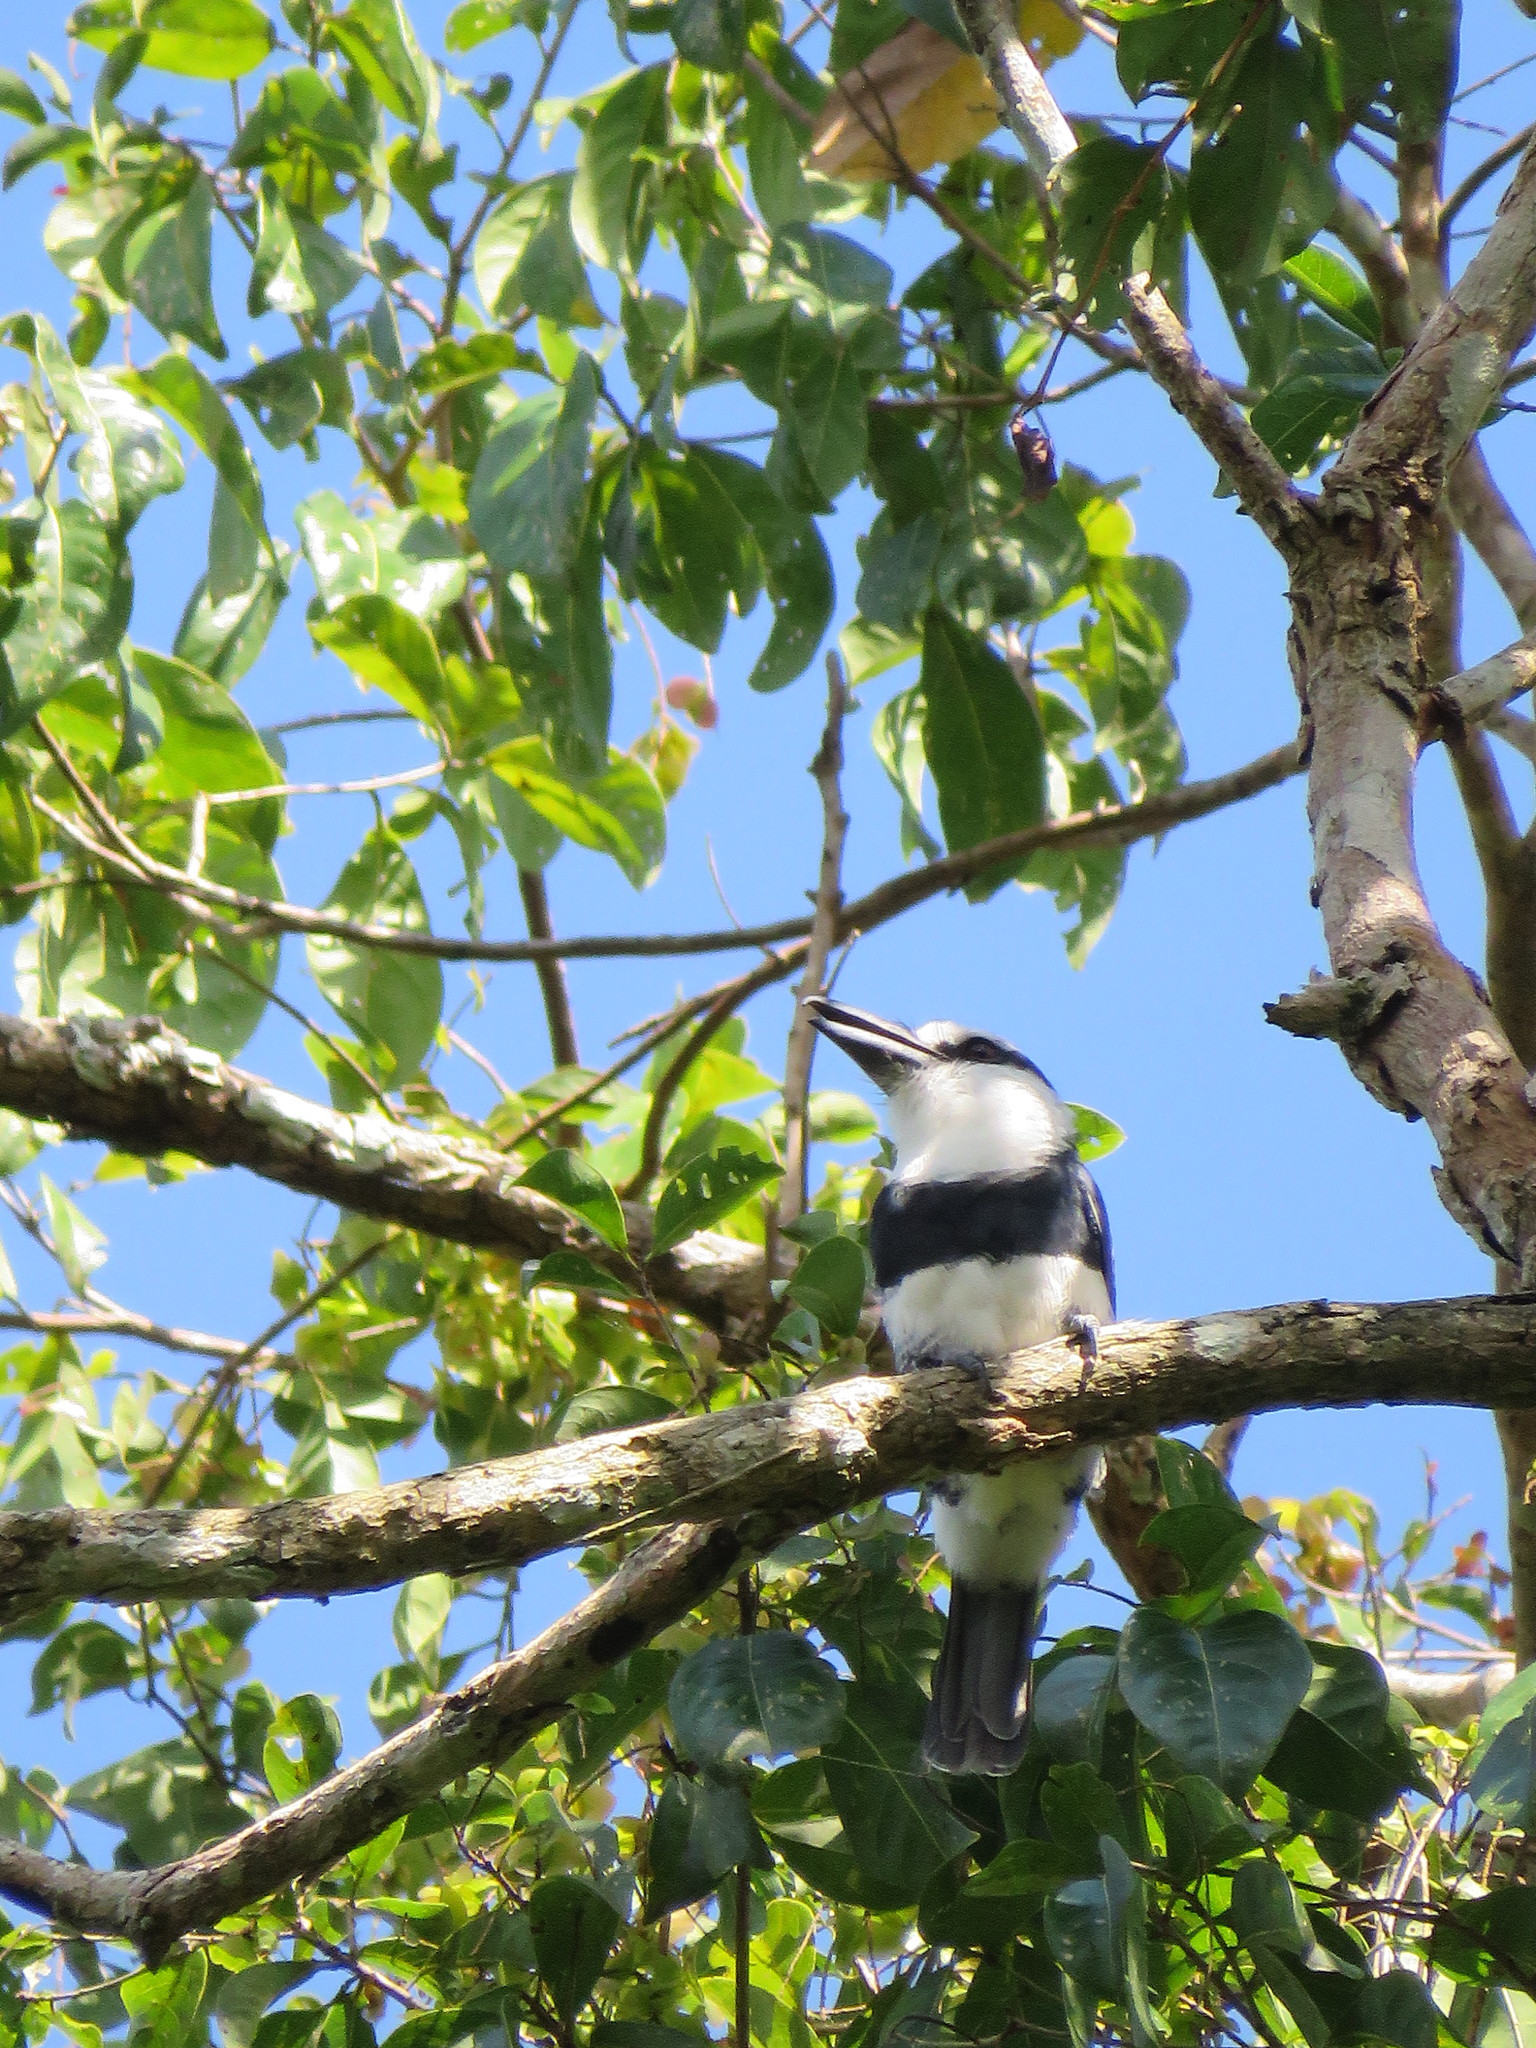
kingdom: Animalia
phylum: Chordata
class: Aves
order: Piciformes
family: Bucconidae
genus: Notharchus
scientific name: Notharchus hyperrhynchus
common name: White-necked puffbird
